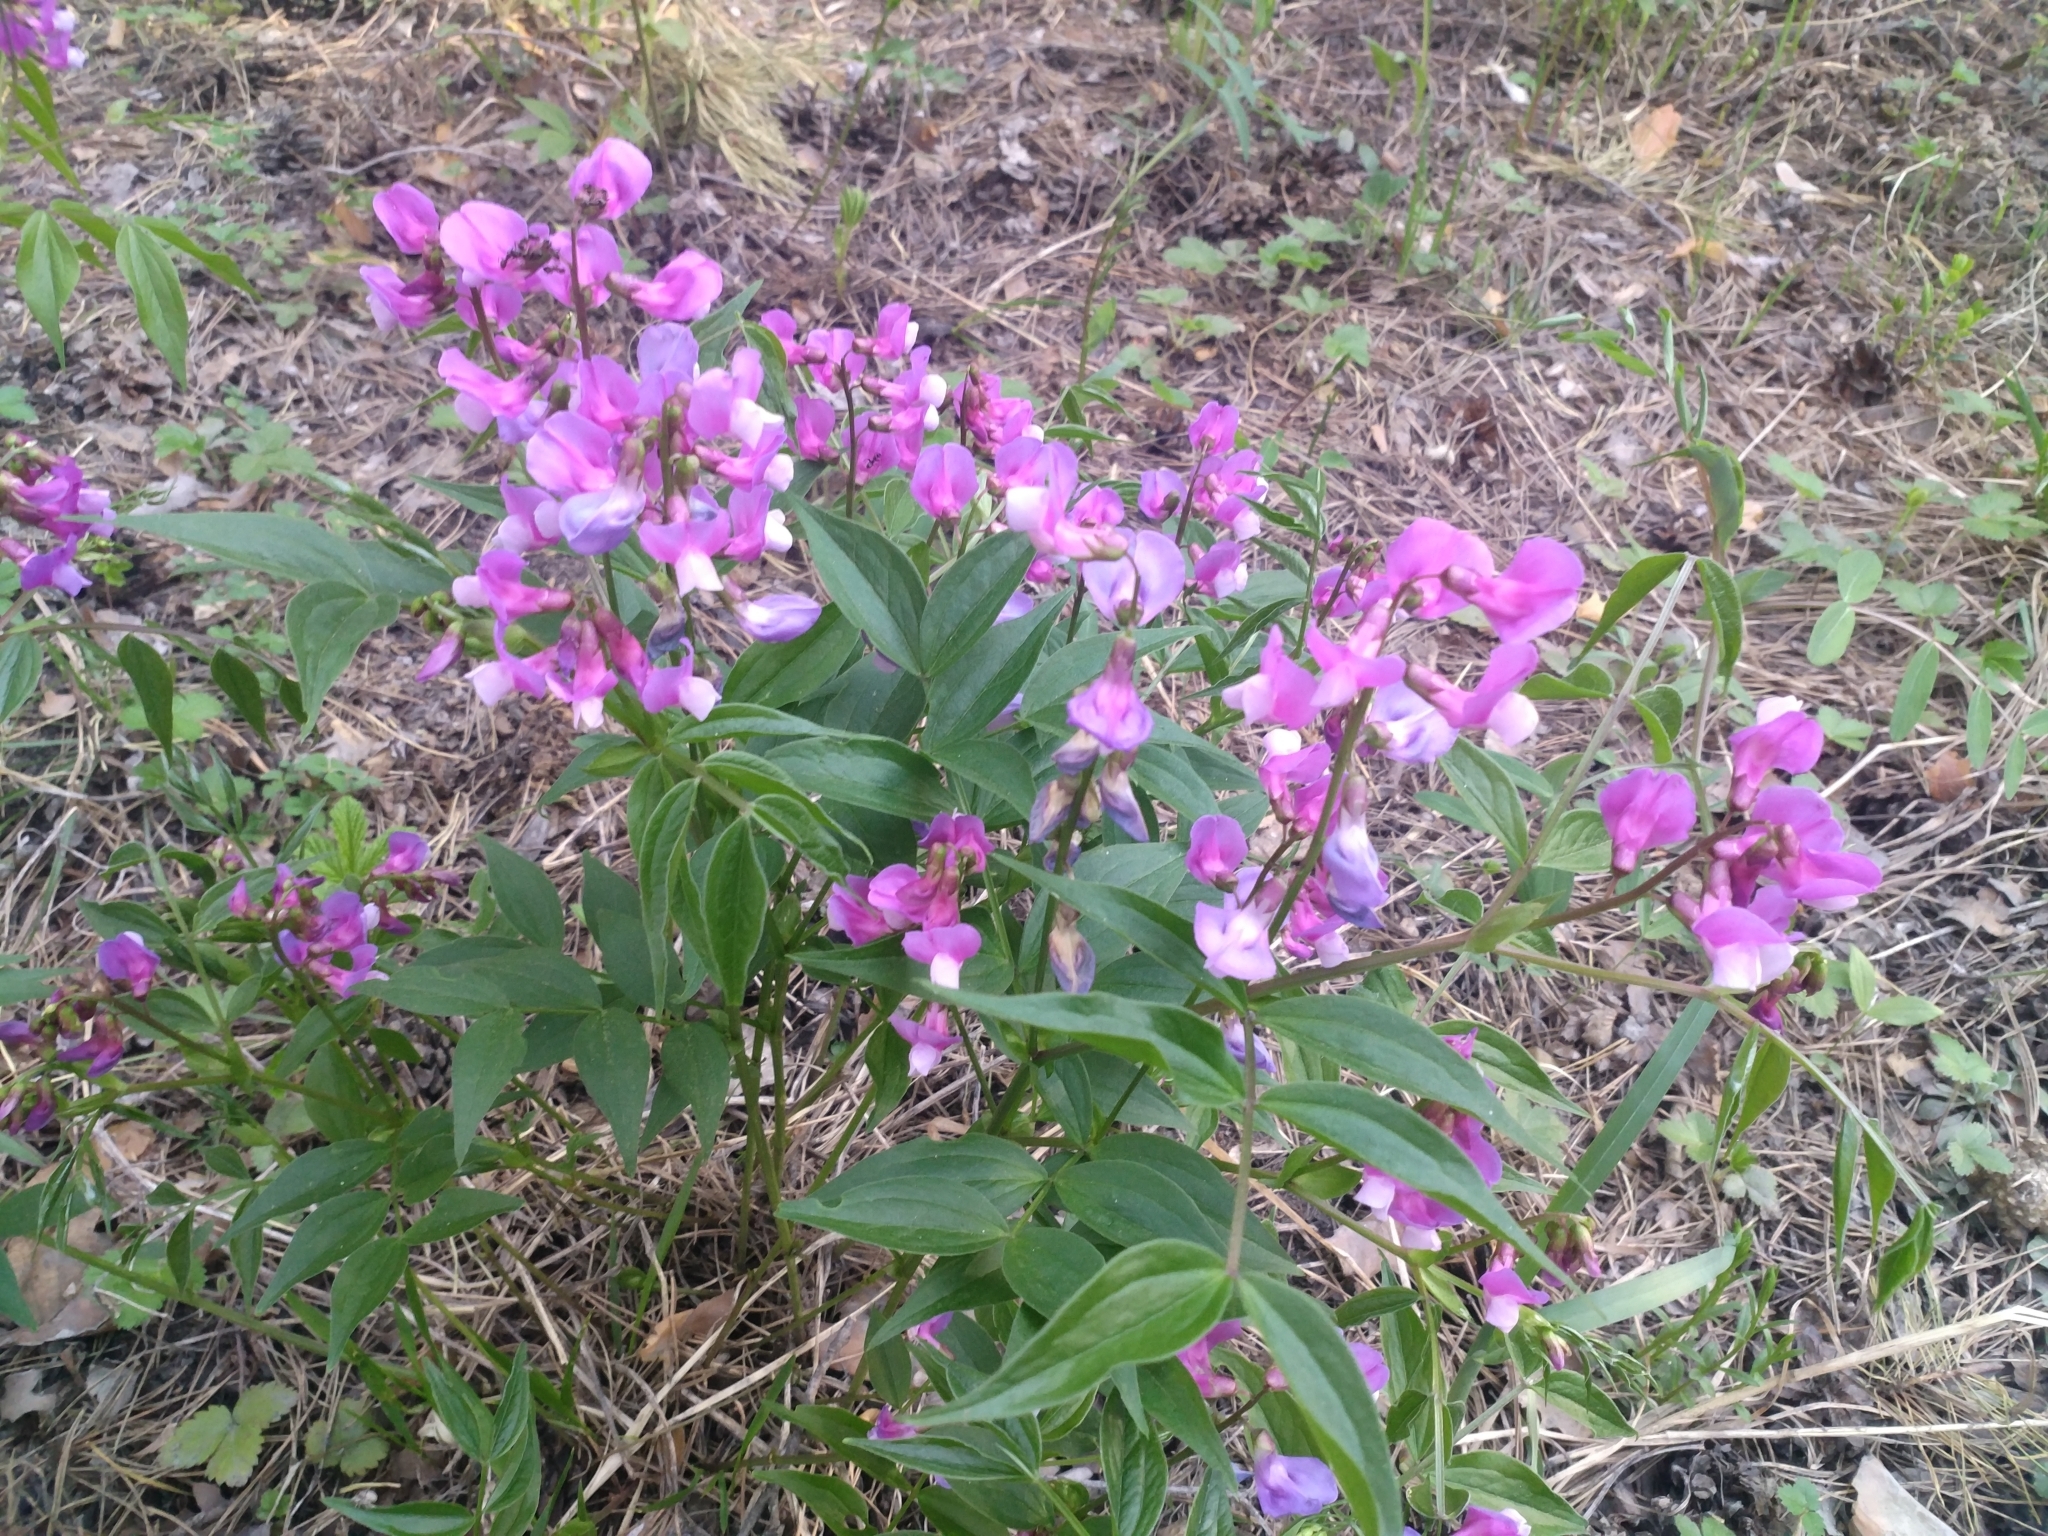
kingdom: Plantae
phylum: Tracheophyta
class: Magnoliopsida
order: Fabales
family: Fabaceae
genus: Lathyrus
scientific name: Lathyrus vernus
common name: Spring pea
